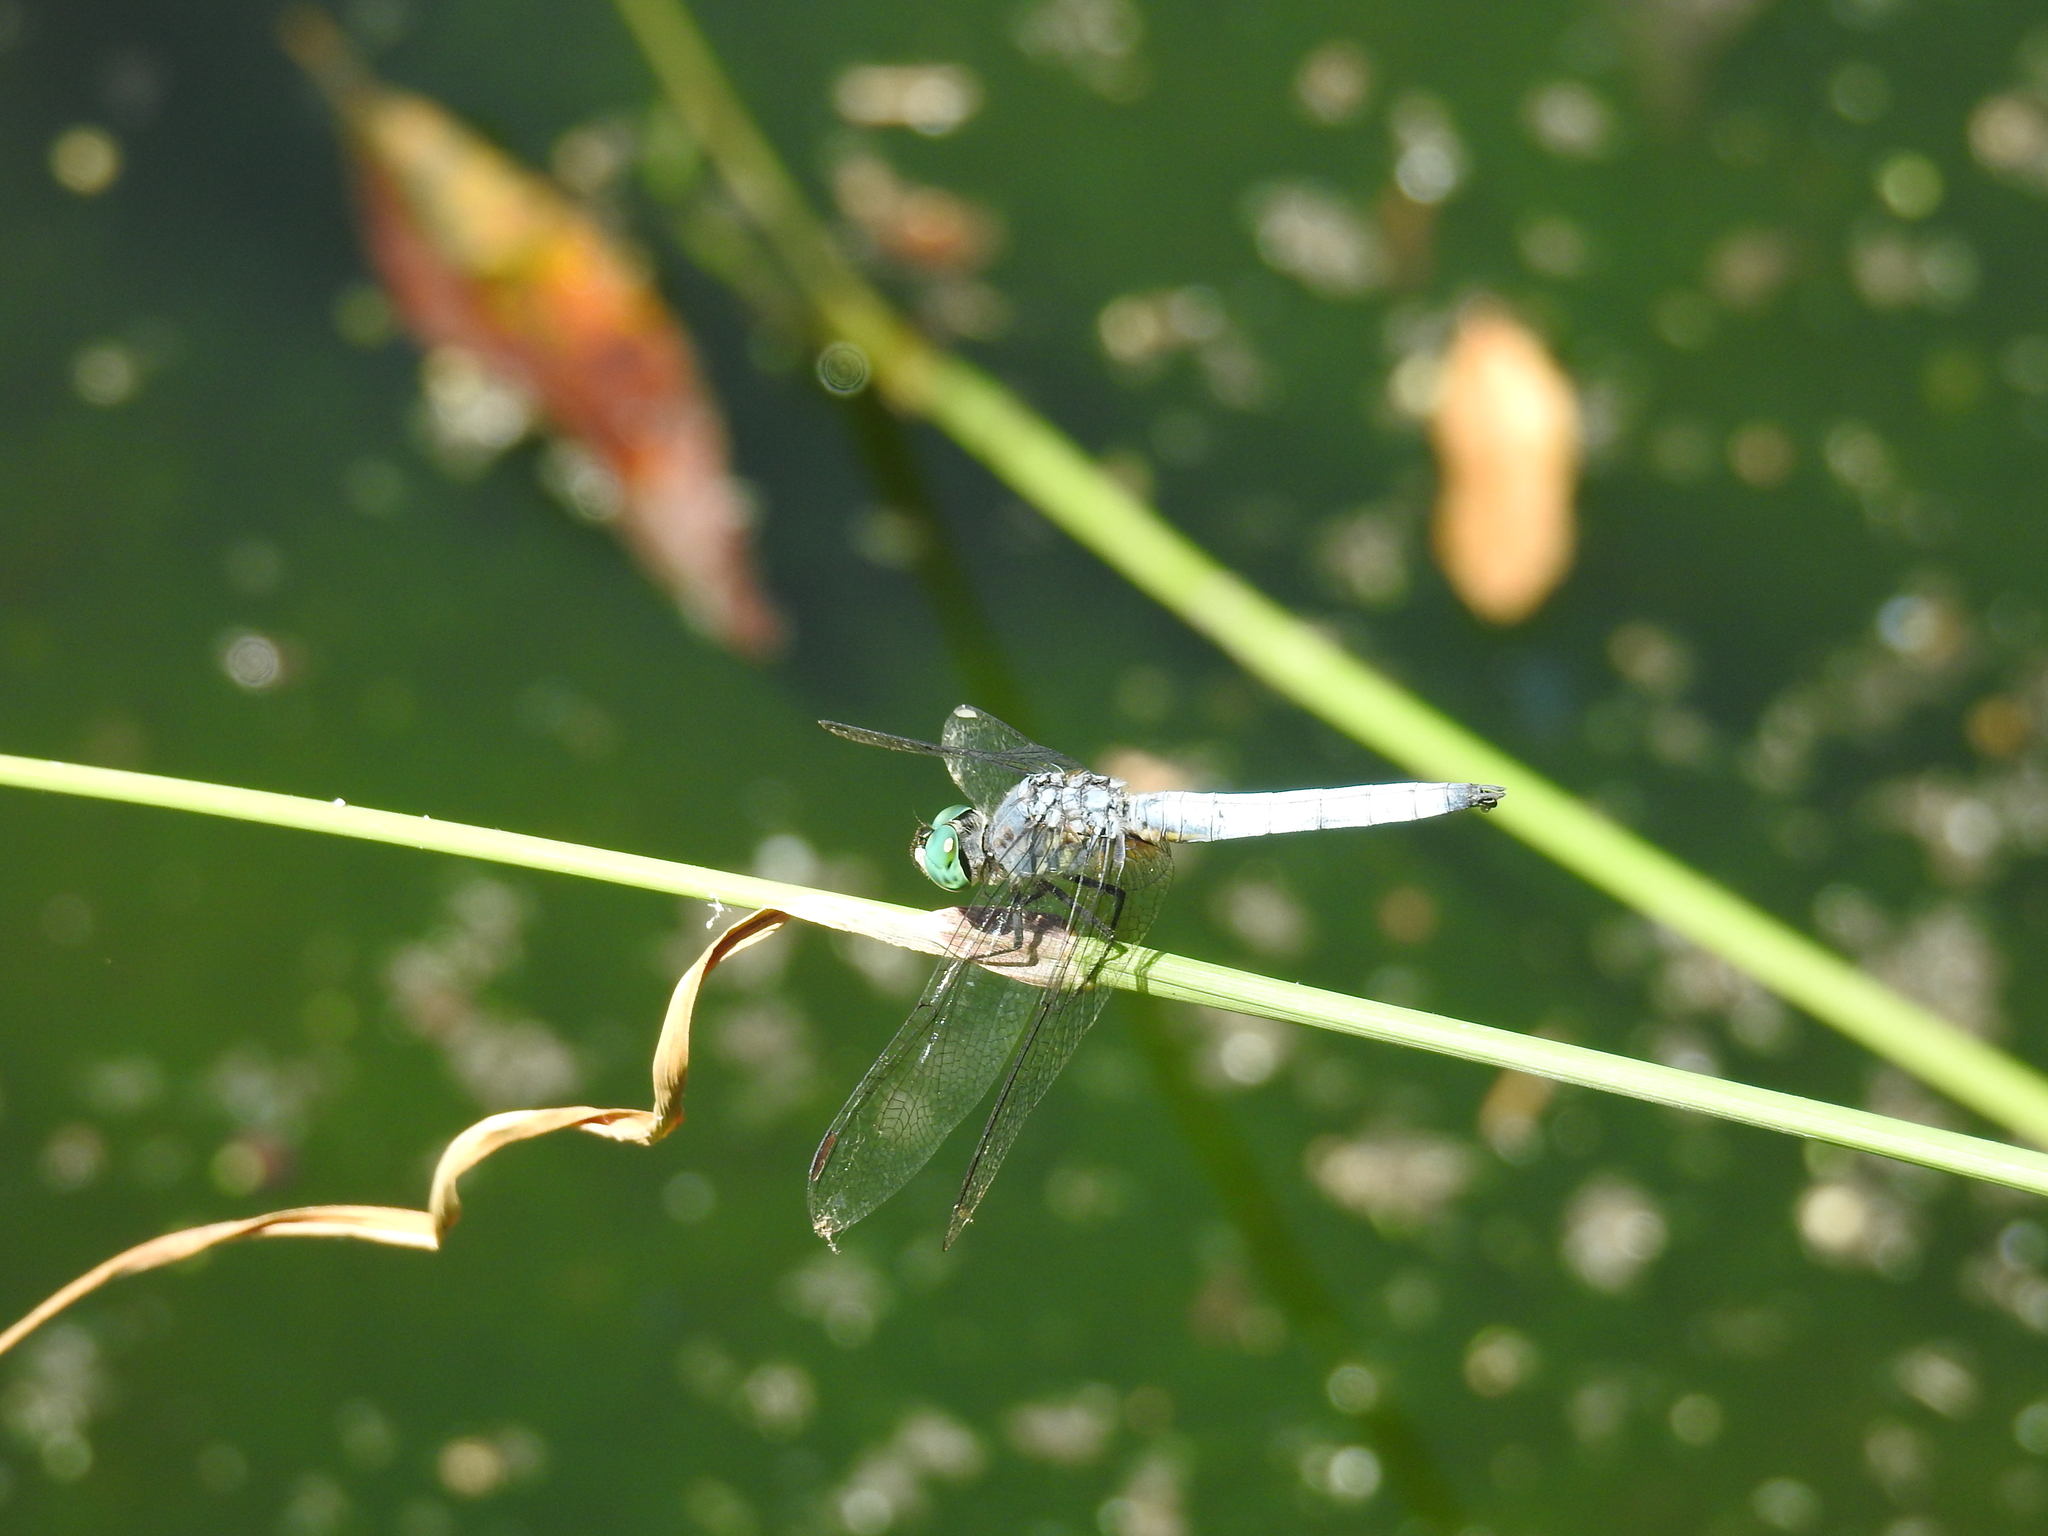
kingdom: Animalia
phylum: Arthropoda
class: Insecta
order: Odonata
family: Libellulidae
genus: Pachydiplax
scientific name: Pachydiplax longipennis
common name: Blue dasher
